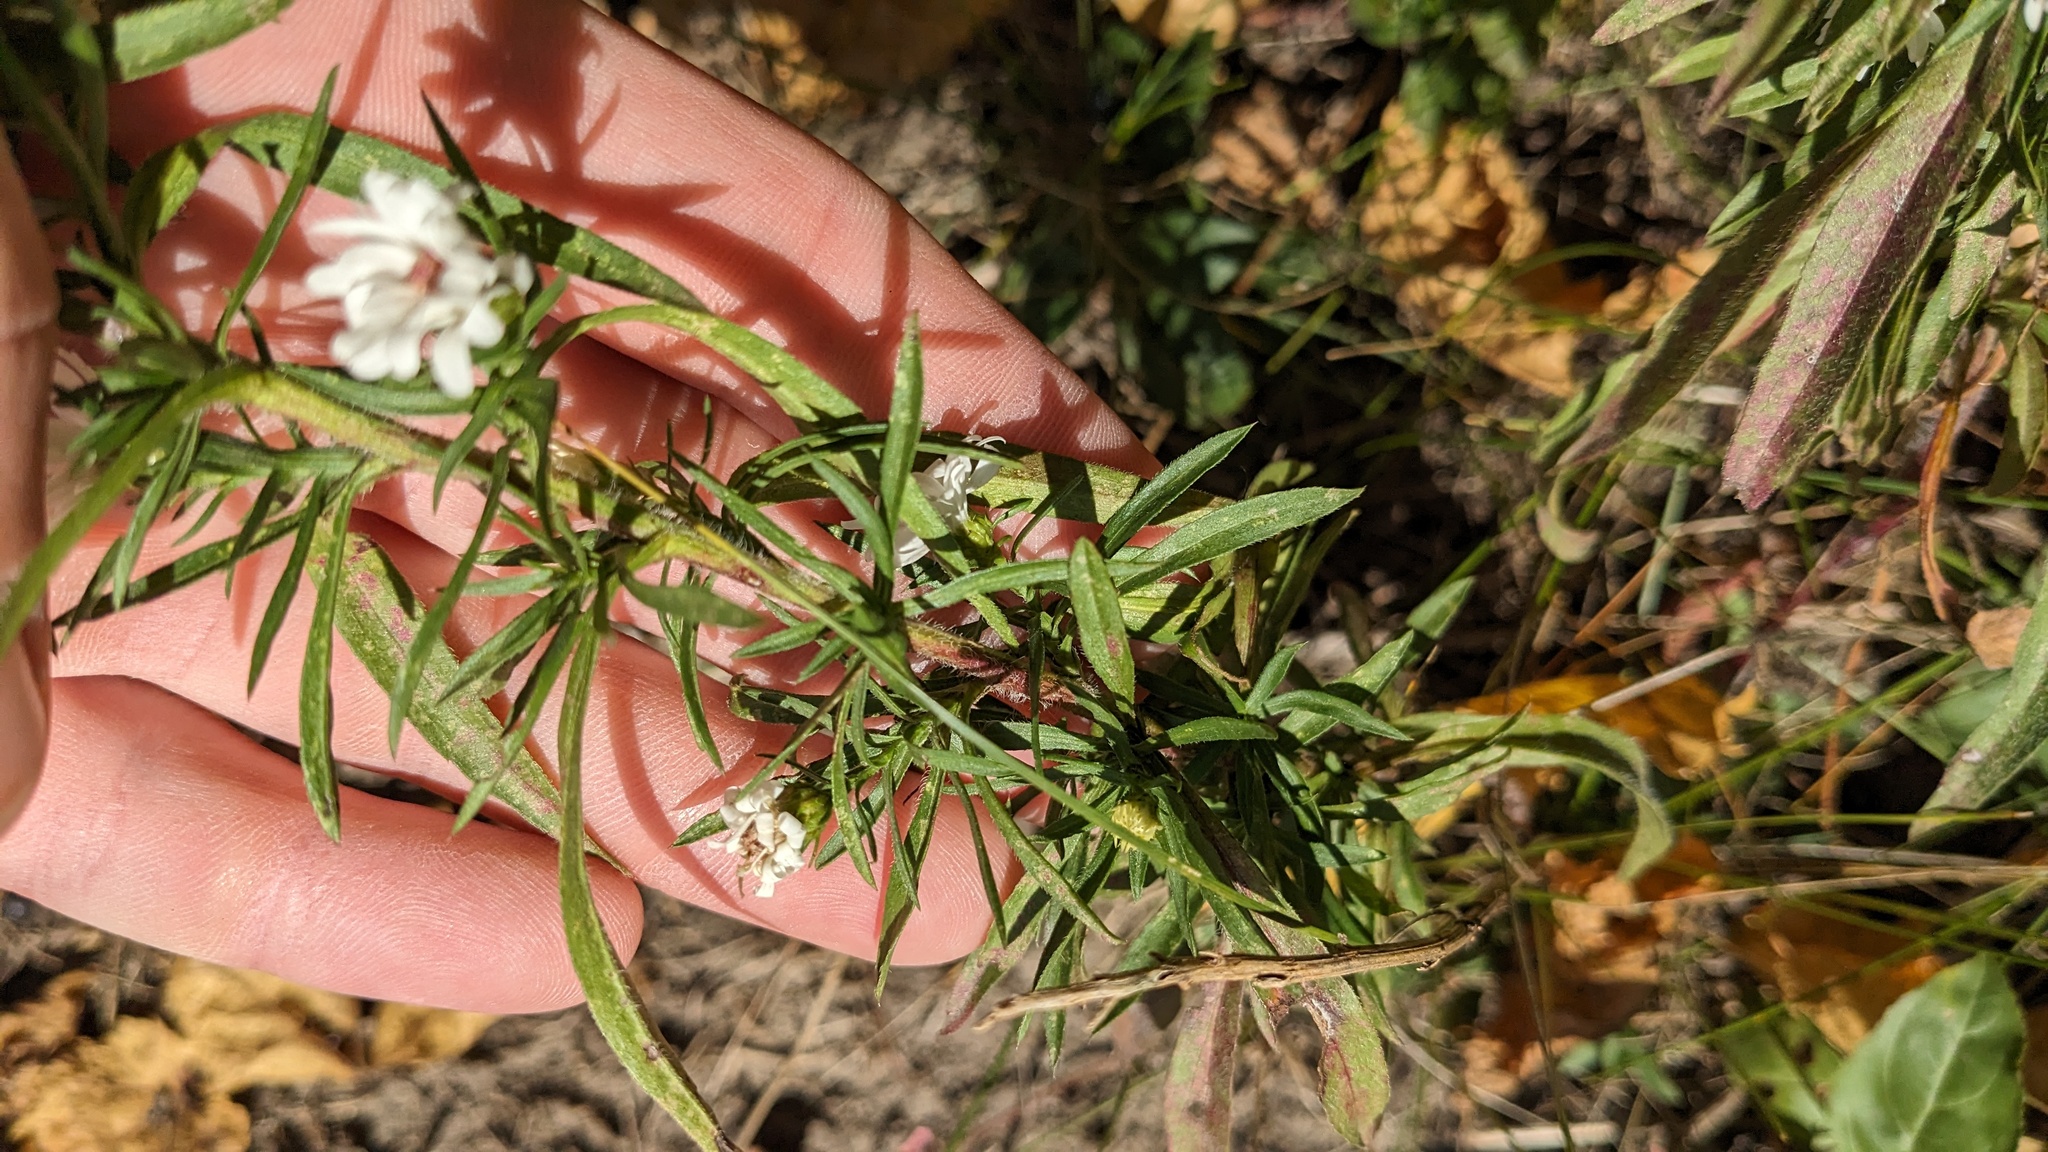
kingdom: Plantae
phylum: Tracheophyta
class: Magnoliopsida
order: Asterales
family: Asteraceae
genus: Symphyotrichum
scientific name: Symphyotrichum pilosum
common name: Awl aster
